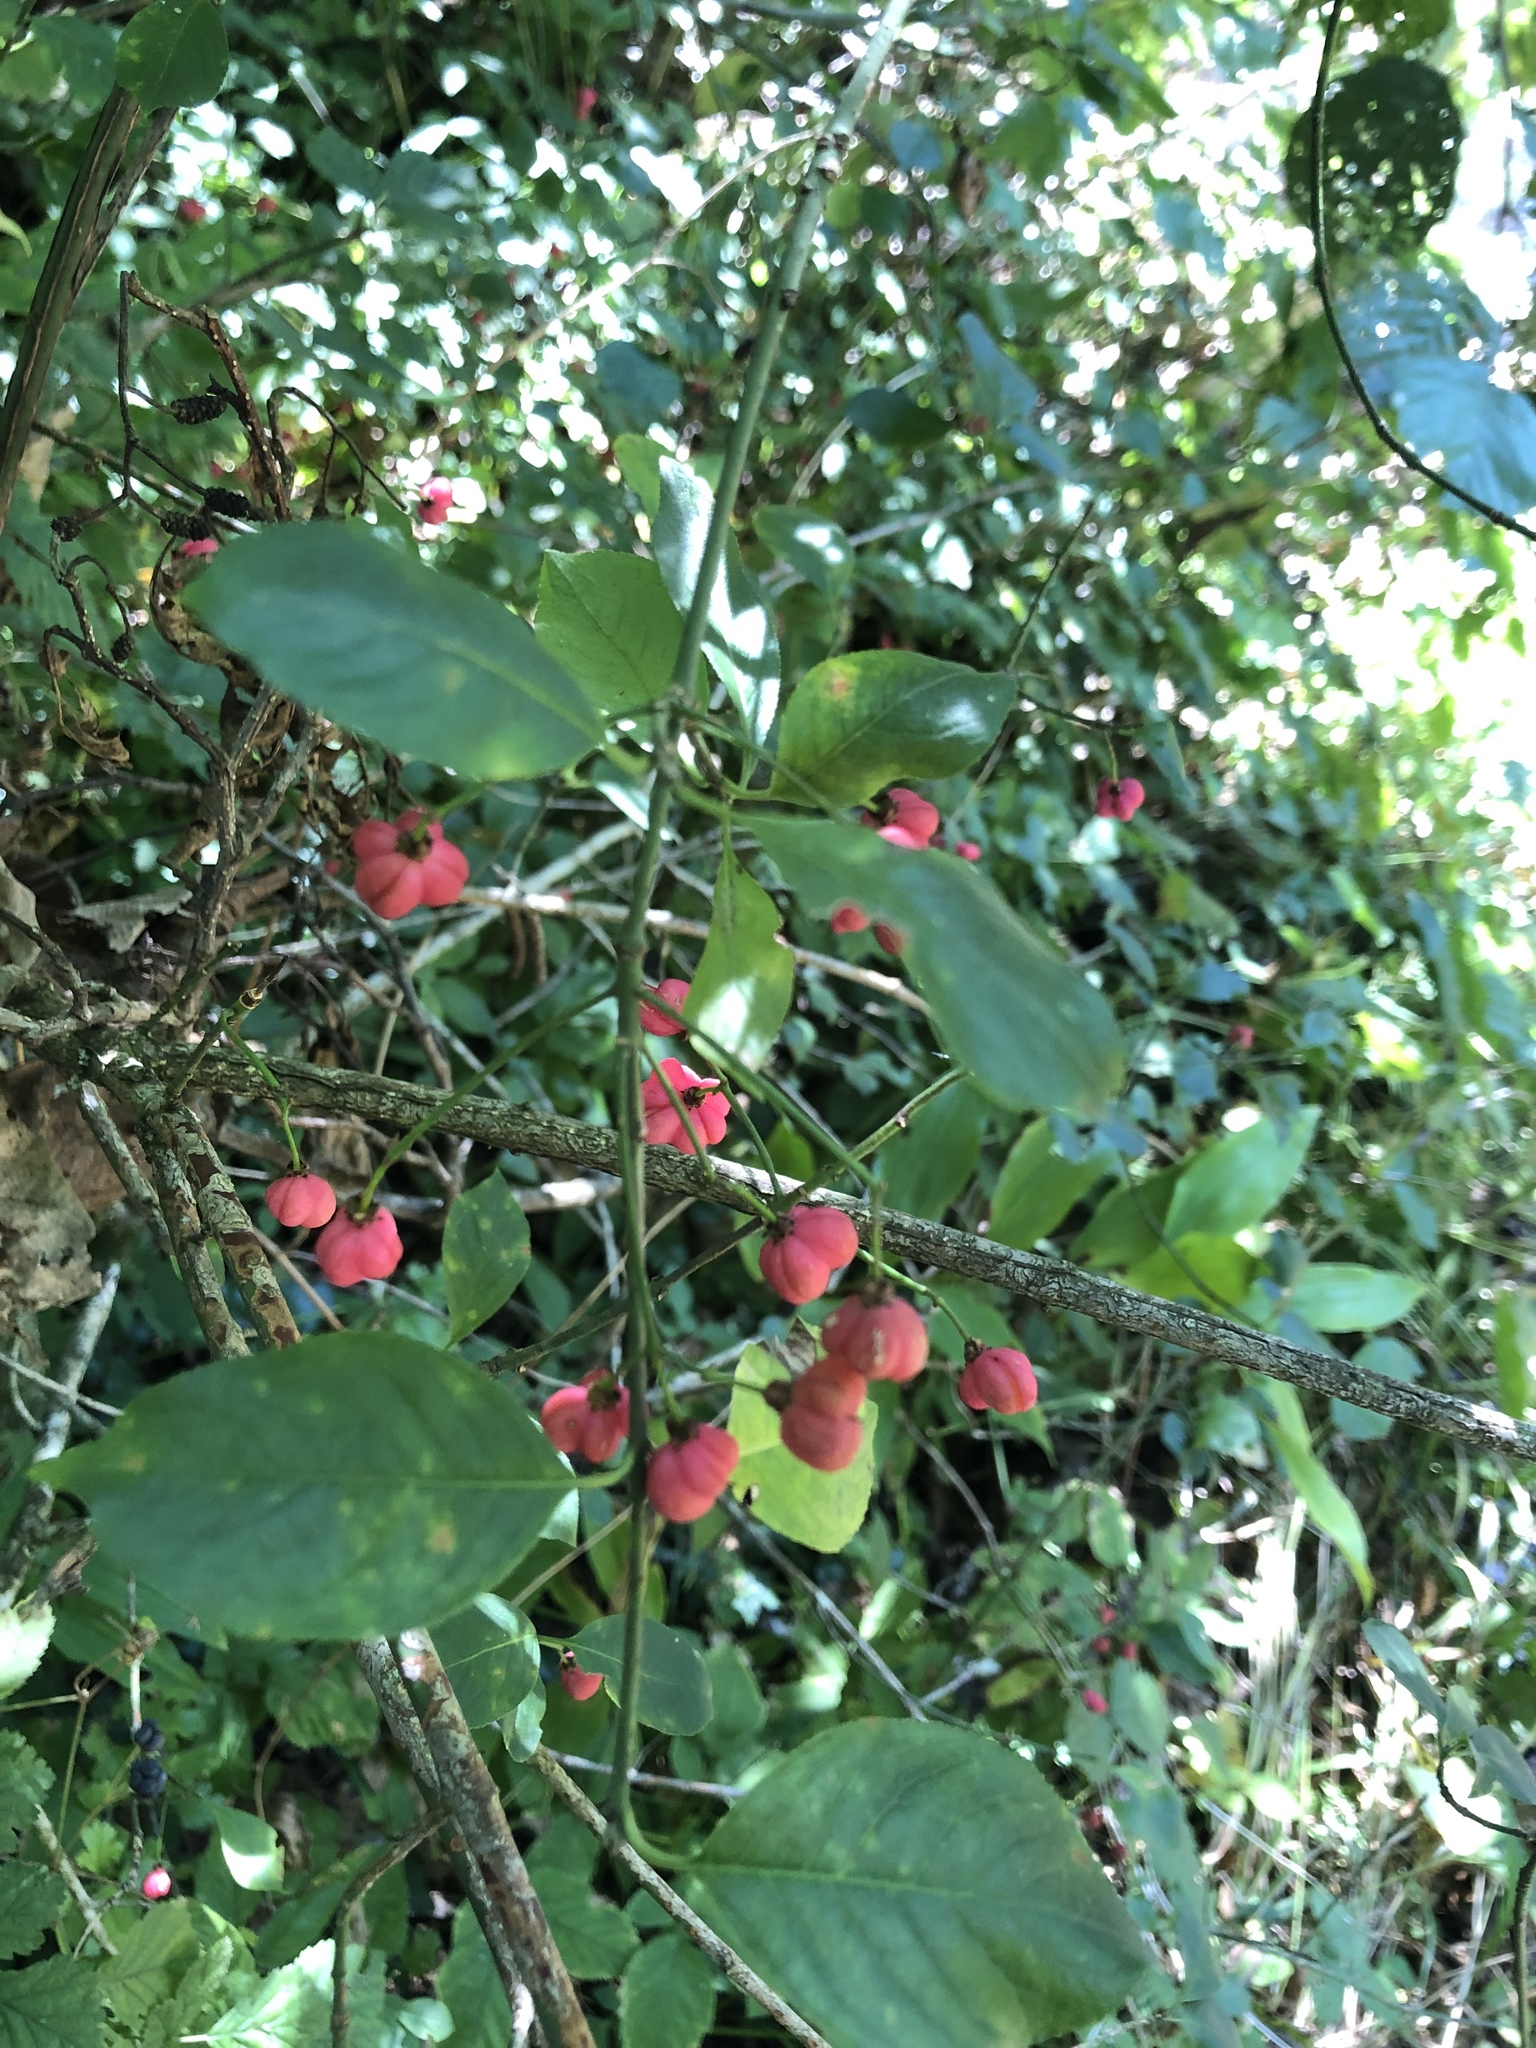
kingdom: Plantae
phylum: Tracheophyta
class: Magnoliopsida
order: Celastrales
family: Celastraceae
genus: Euonymus
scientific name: Euonymus europaeus
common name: Spindle
